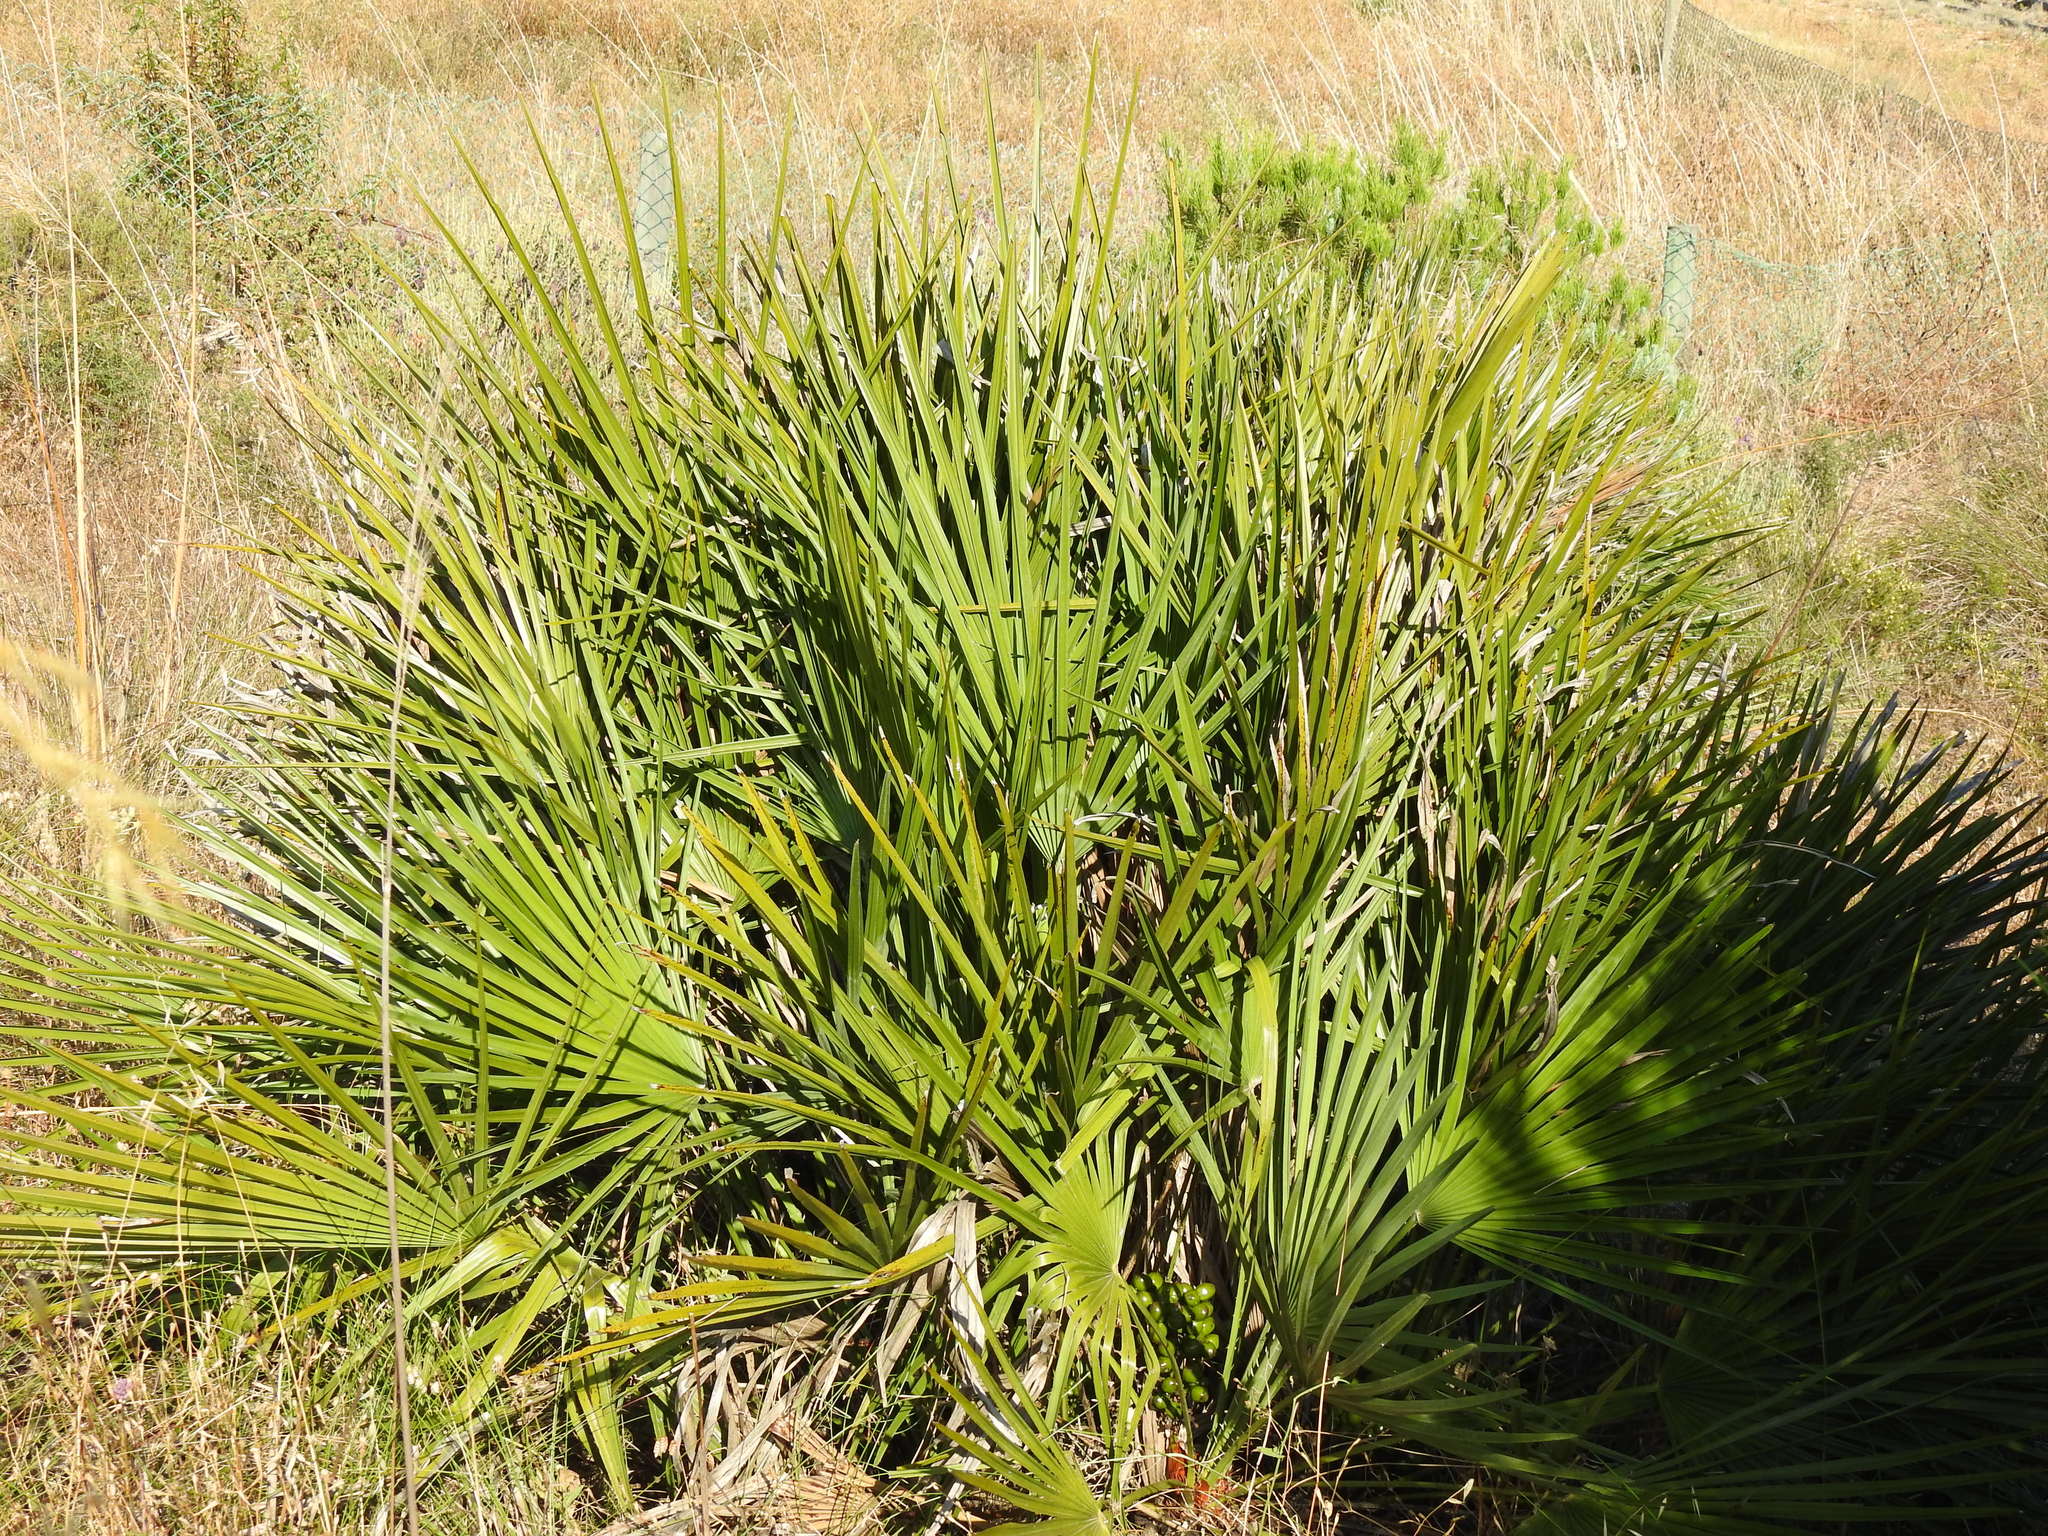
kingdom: Plantae
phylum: Tracheophyta
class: Liliopsida
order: Arecales
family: Arecaceae
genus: Chamaerops
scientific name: Chamaerops humilis
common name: Dwarf fan palm
